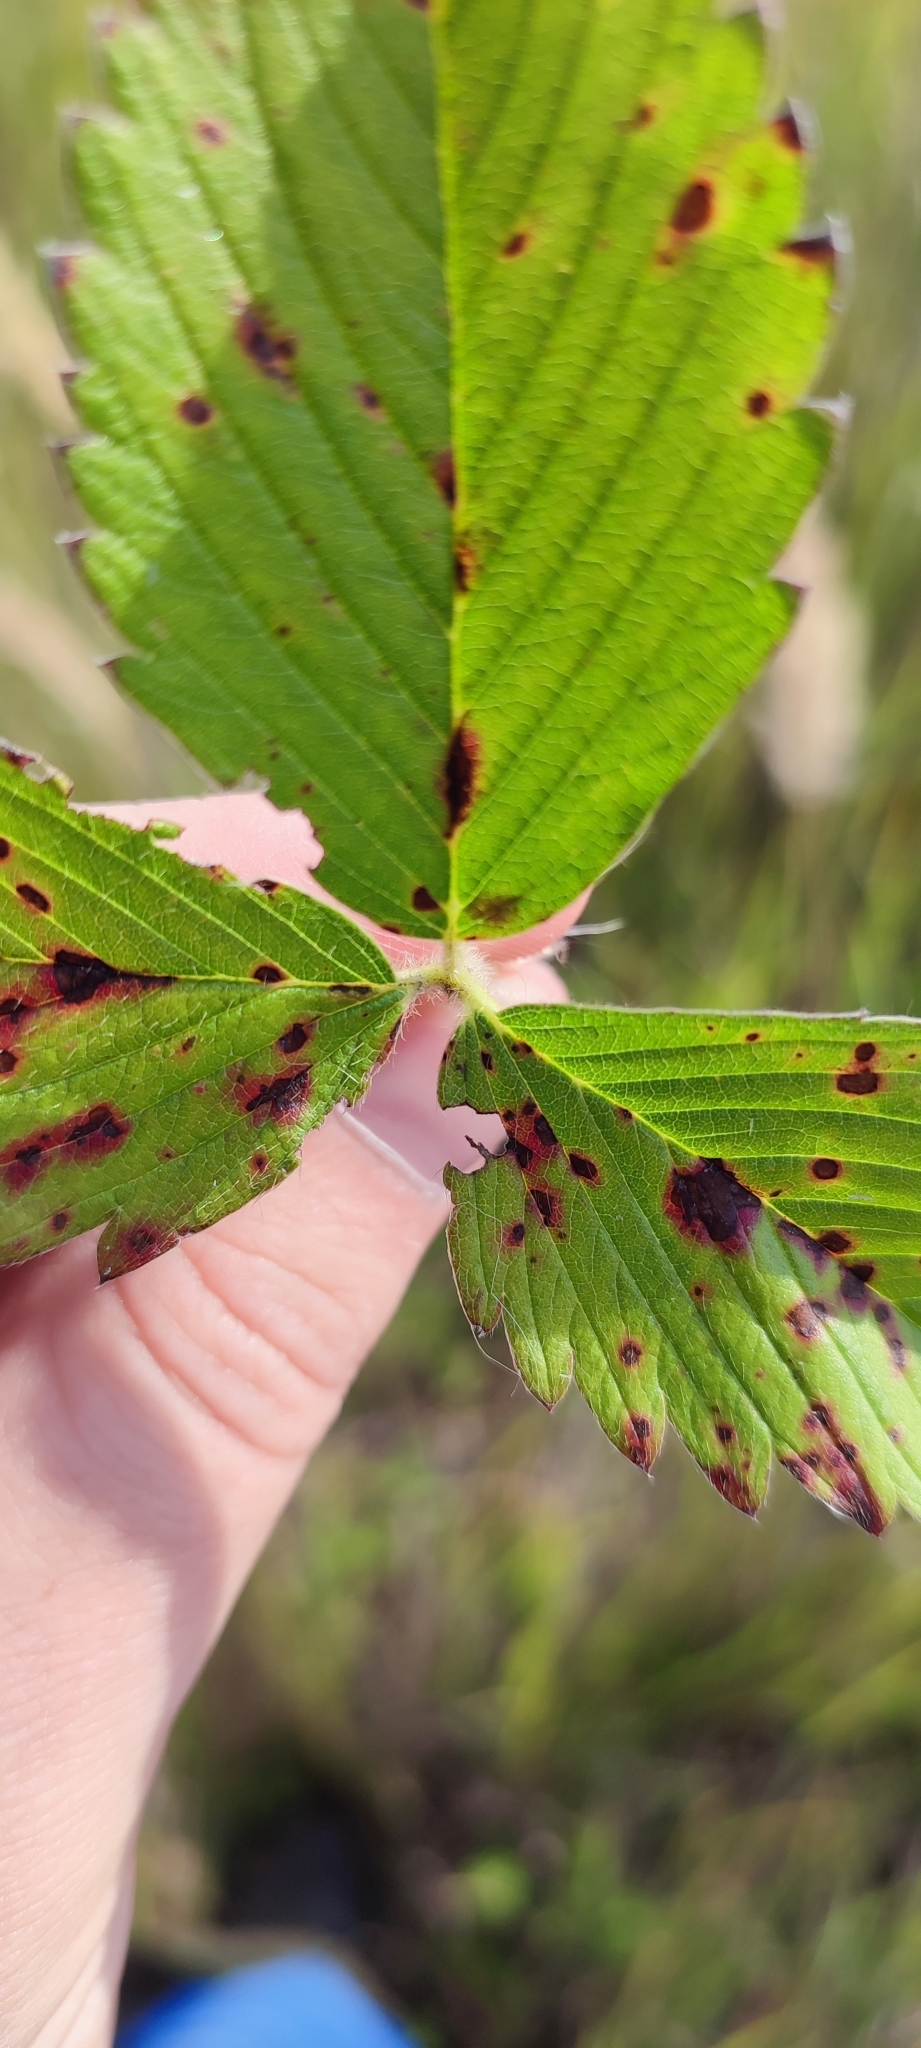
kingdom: Plantae
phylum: Tracheophyta
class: Magnoliopsida
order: Rosales
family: Rosaceae
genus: Fragaria
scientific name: Fragaria viridis
